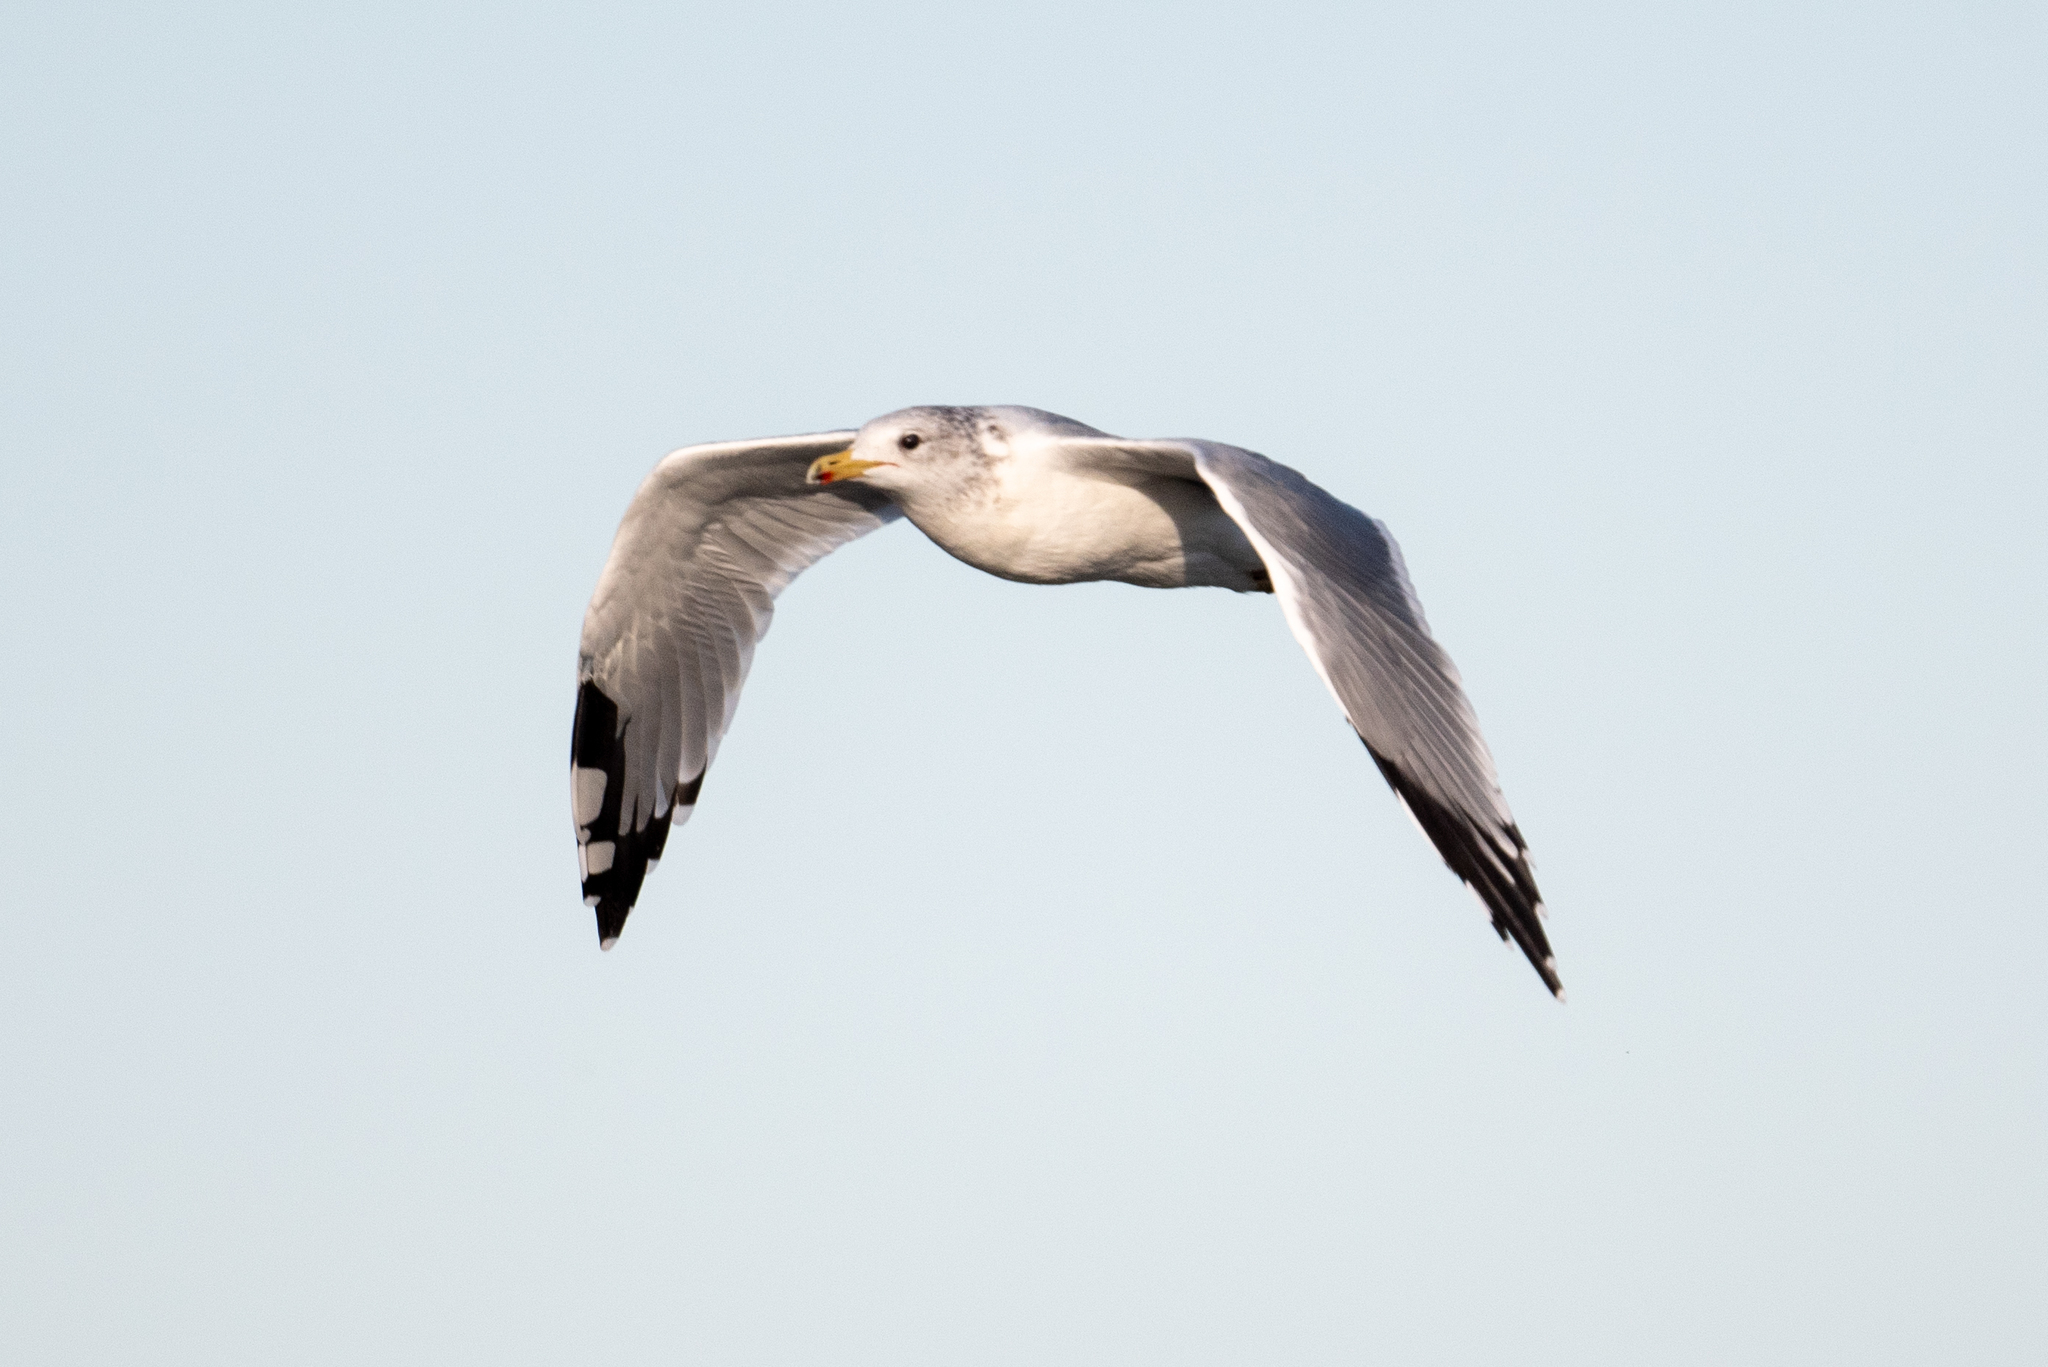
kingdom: Animalia
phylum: Chordata
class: Aves
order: Charadriiformes
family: Laridae
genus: Larus
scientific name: Larus californicus
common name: California gull
